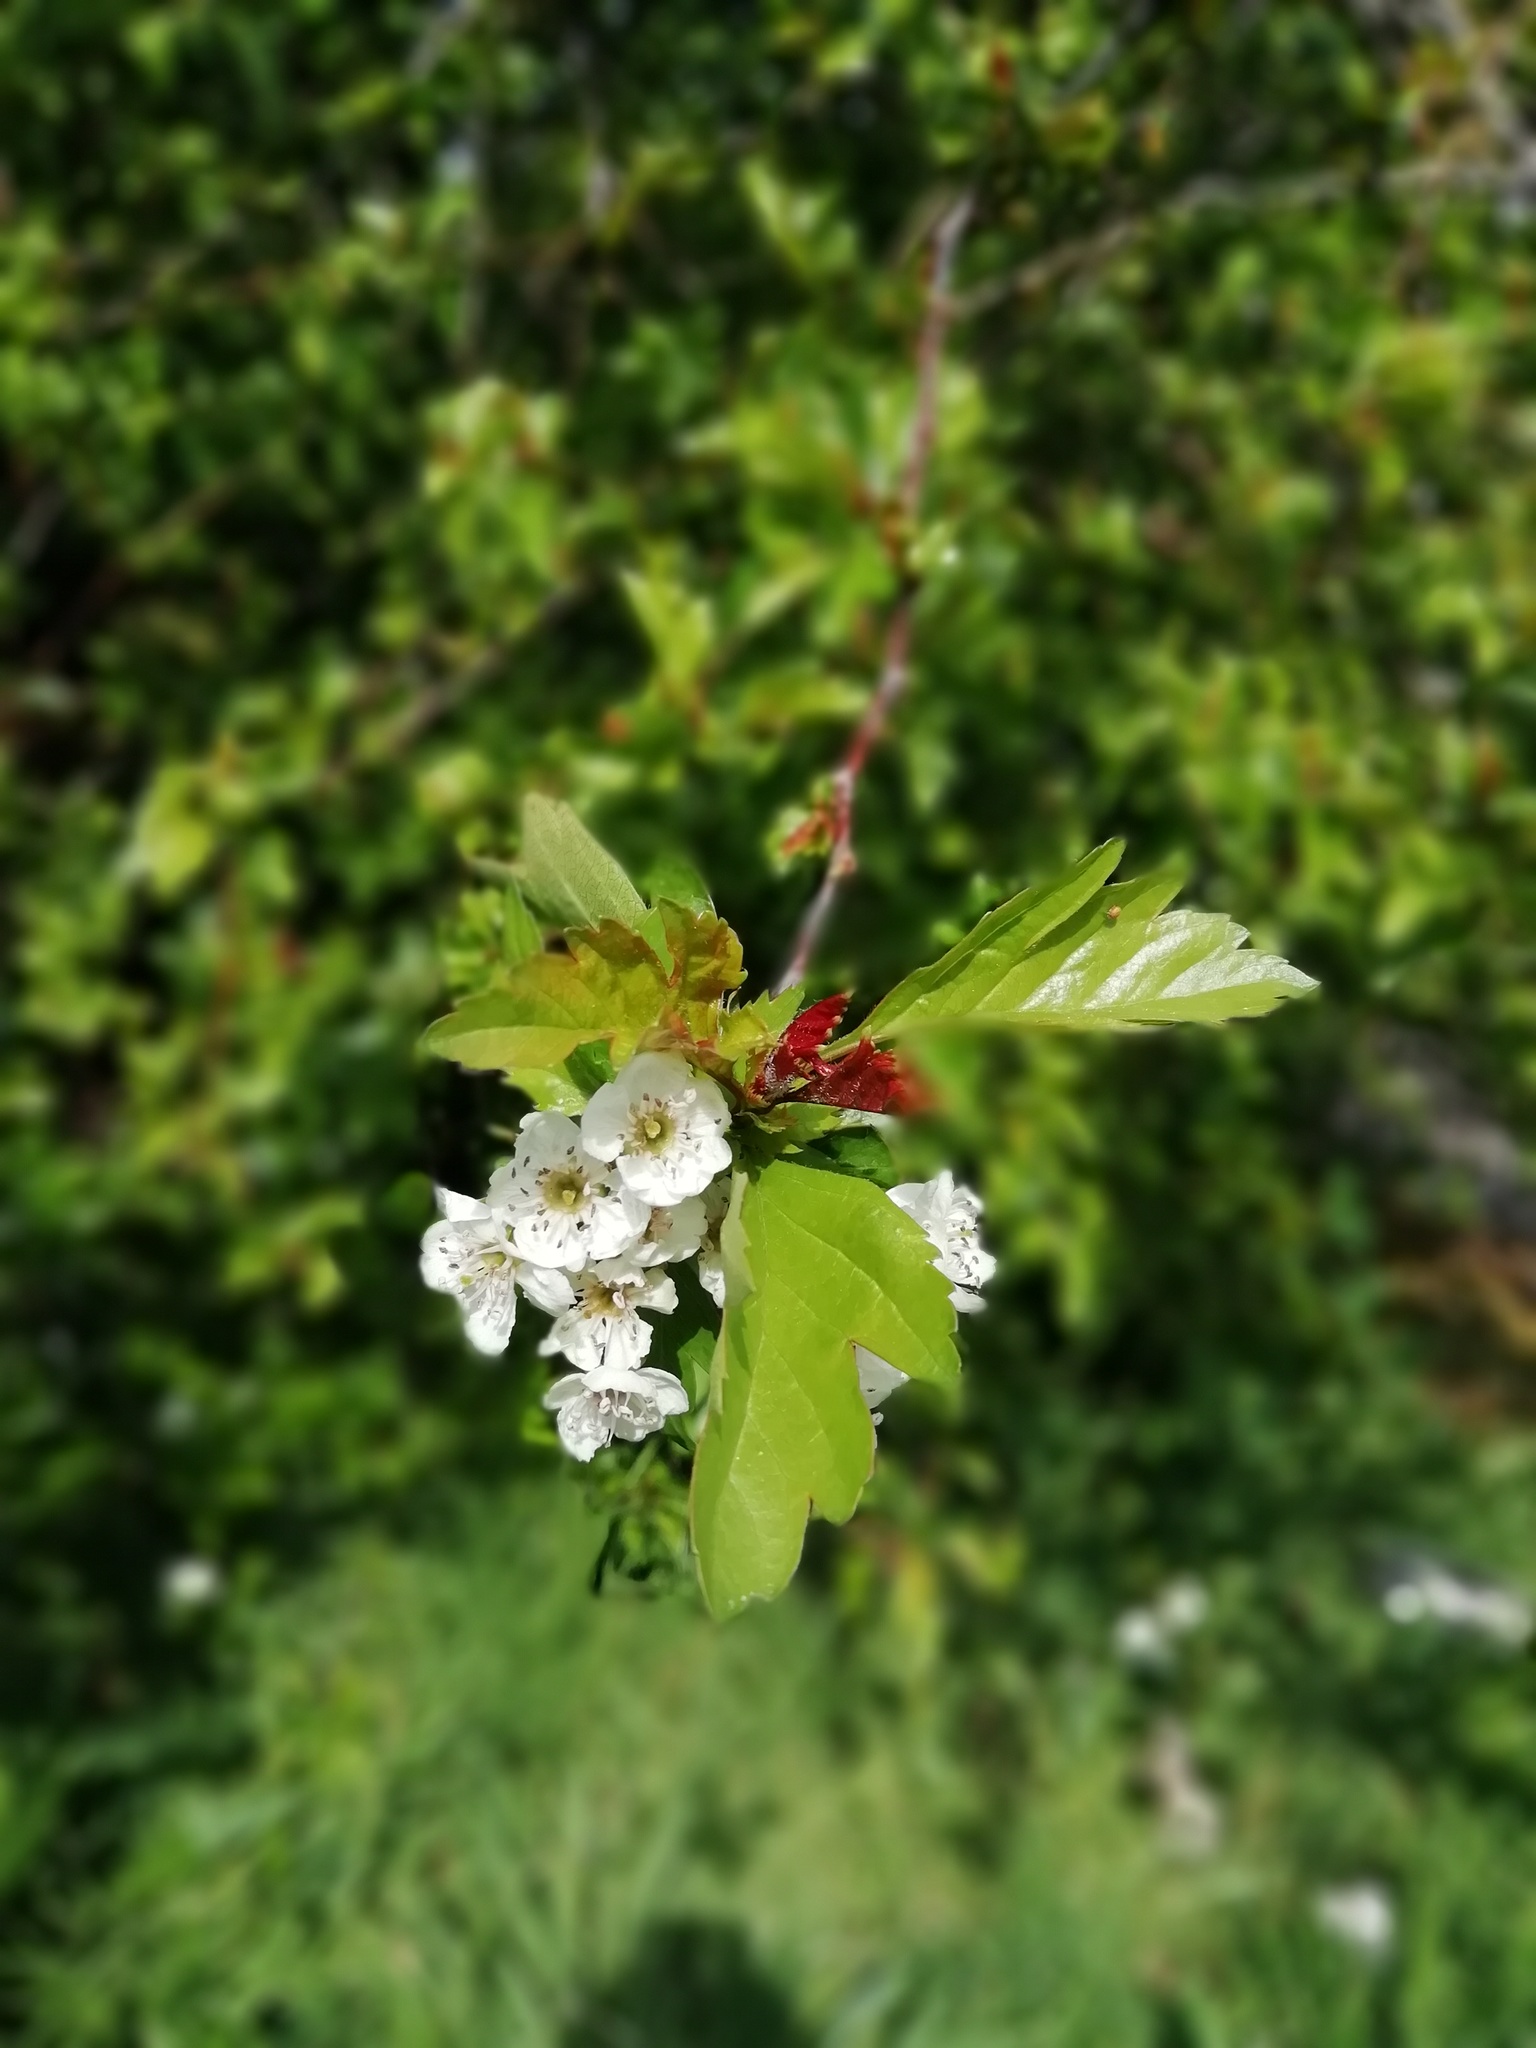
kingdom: Plantae
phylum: Tracheophyta
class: Magnoliopsida
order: Rosales
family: Rosaceae
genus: Crataegus
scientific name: Crataegus monogyna
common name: Hawthorn
